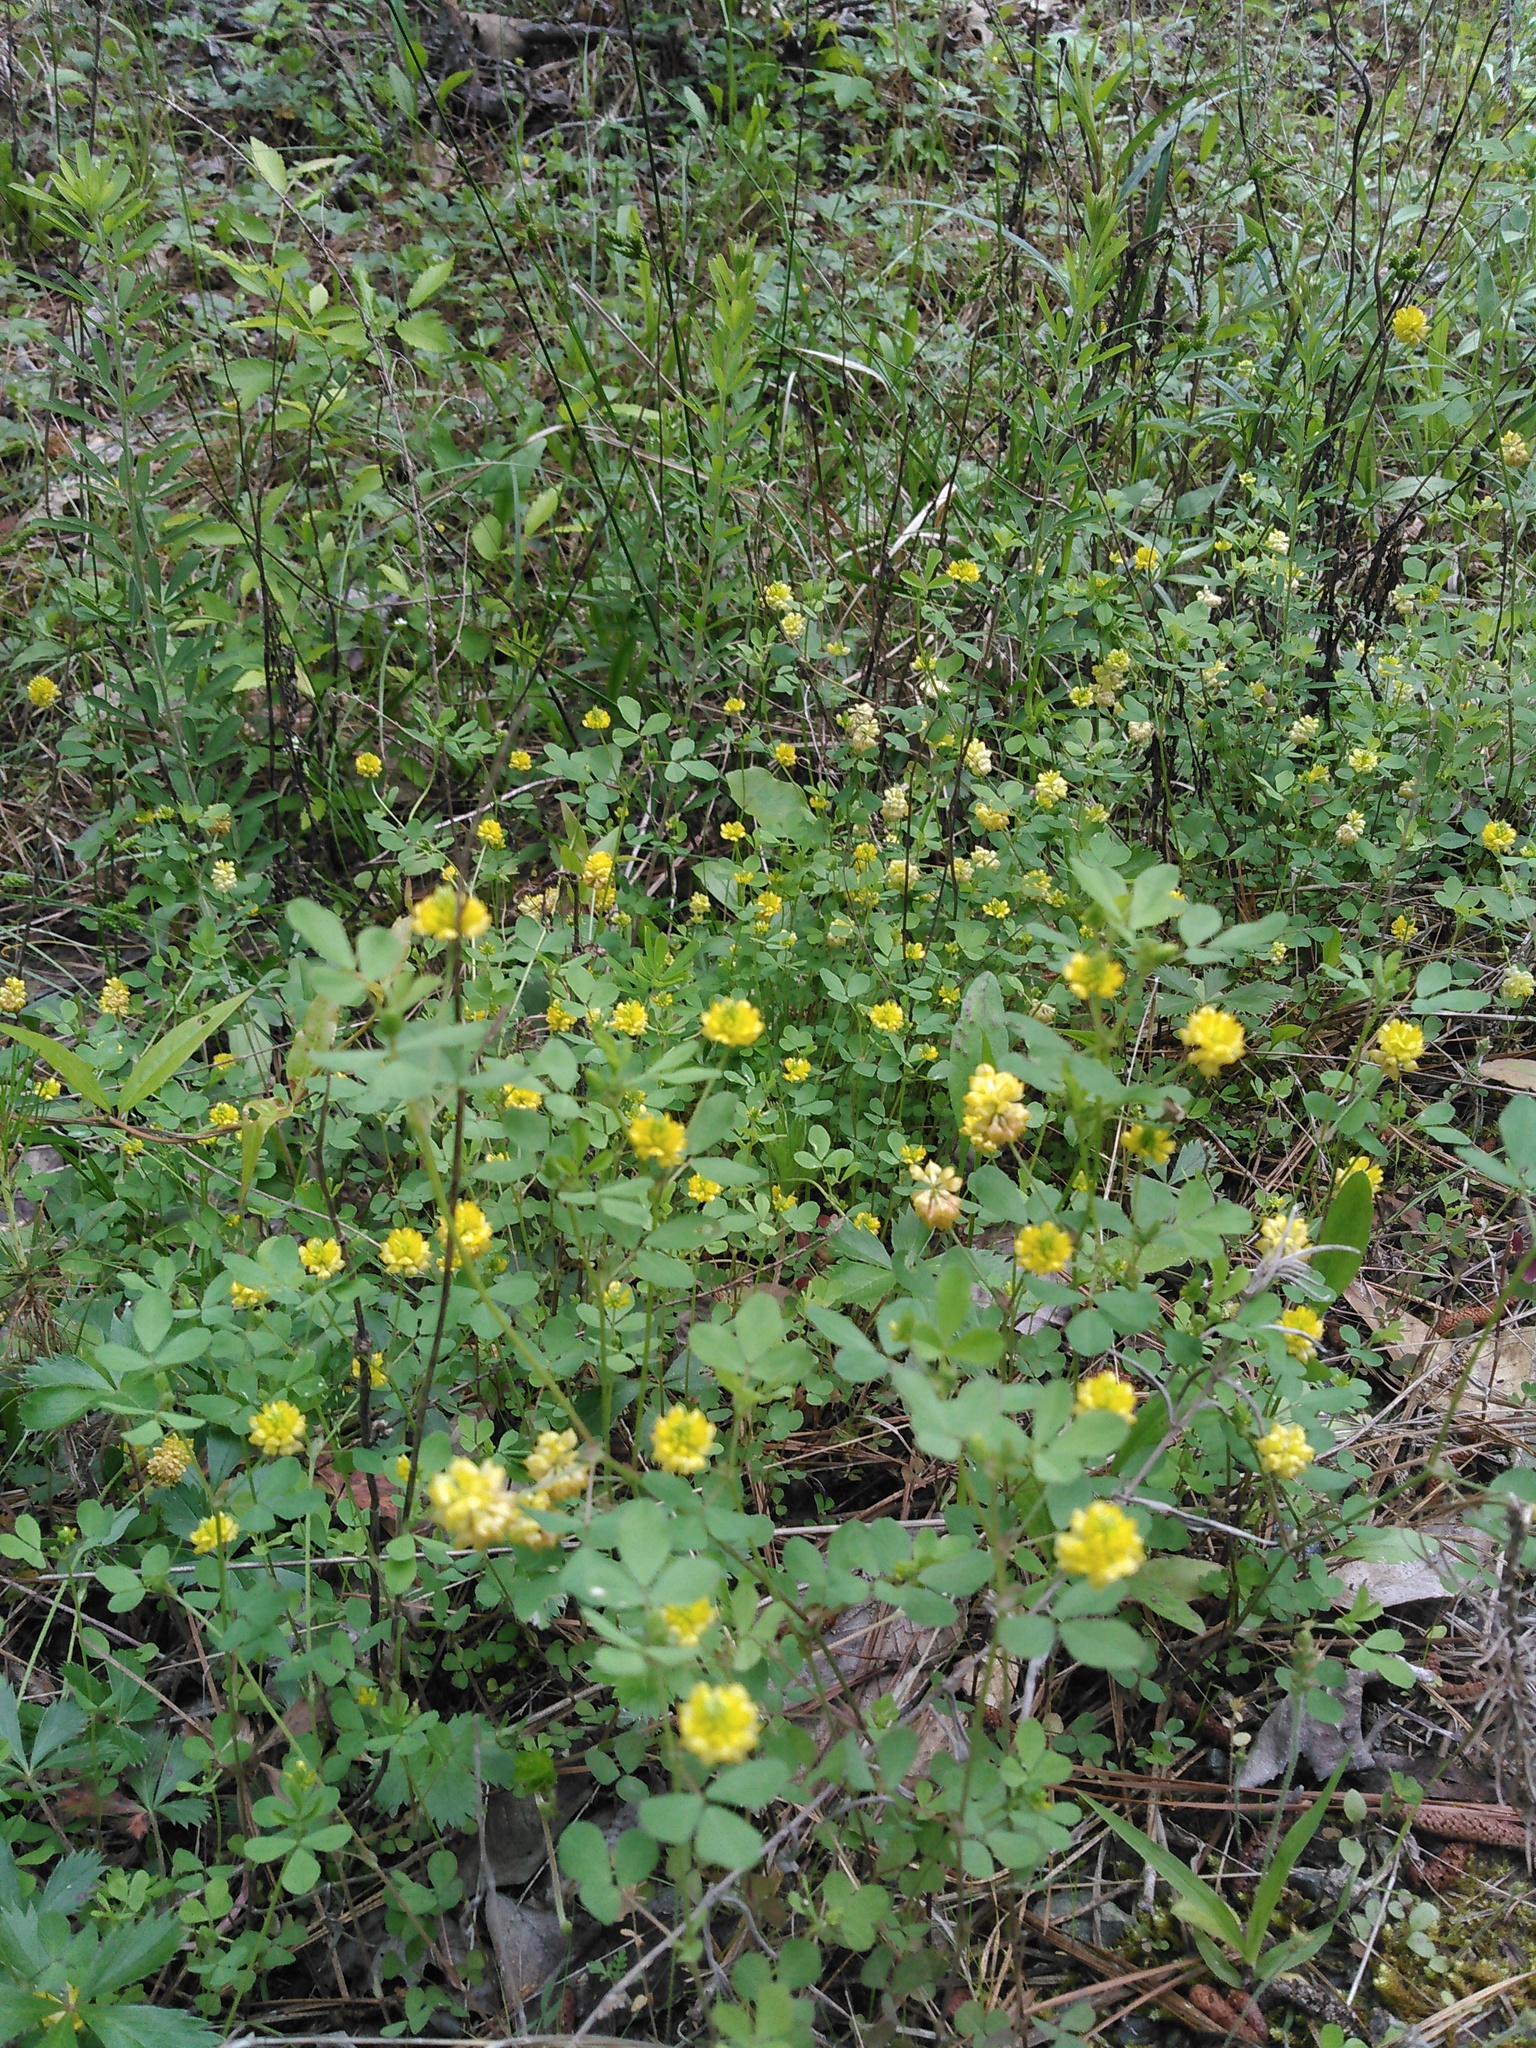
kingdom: Plantae
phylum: Tracheophyta
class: Magnoliopsida
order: Fabales
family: Fabaceae
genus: Trifolium
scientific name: Trifolium campestre
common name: Field clover
